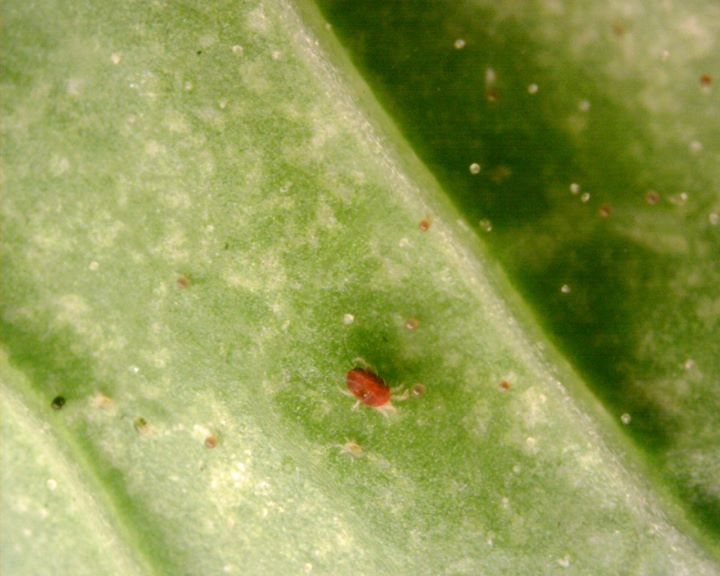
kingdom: Animalia
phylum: Arthropoda
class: Arachnida
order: Trombidiformes
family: Tetranychidae
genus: Tetranychus
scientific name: Tetranychus urticae
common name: Carmine spider mite
